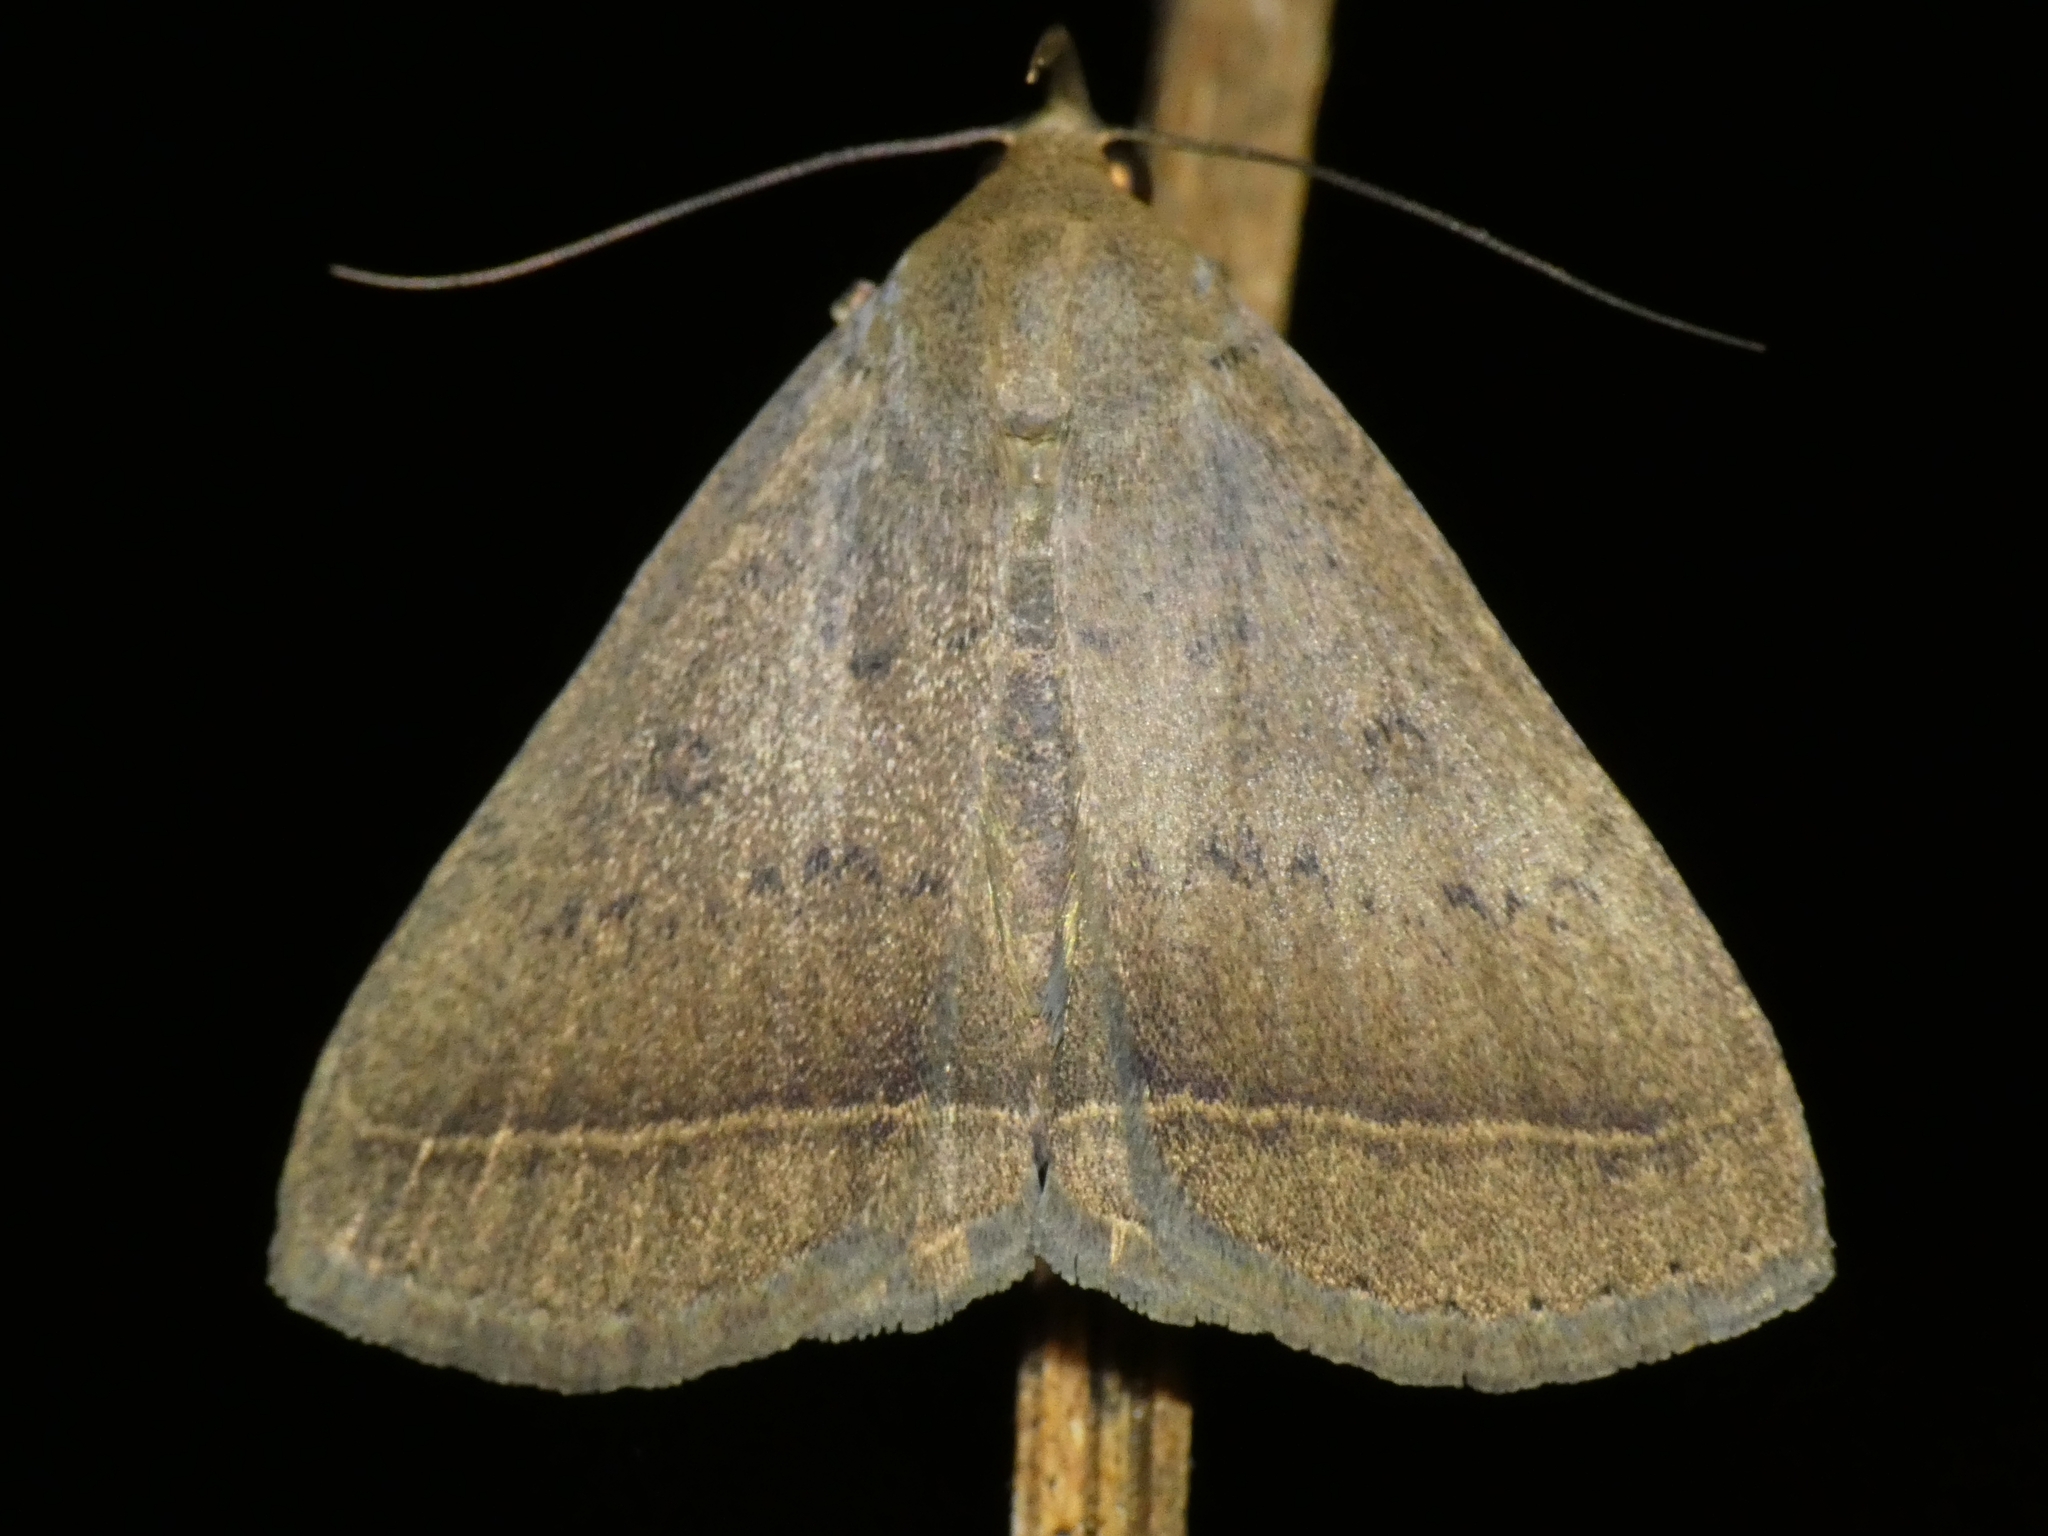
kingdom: Animalia
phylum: Arthropoda
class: Insecta
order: Lepidoptera
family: Erebidae
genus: Simplicia
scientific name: Simplicia erebina
